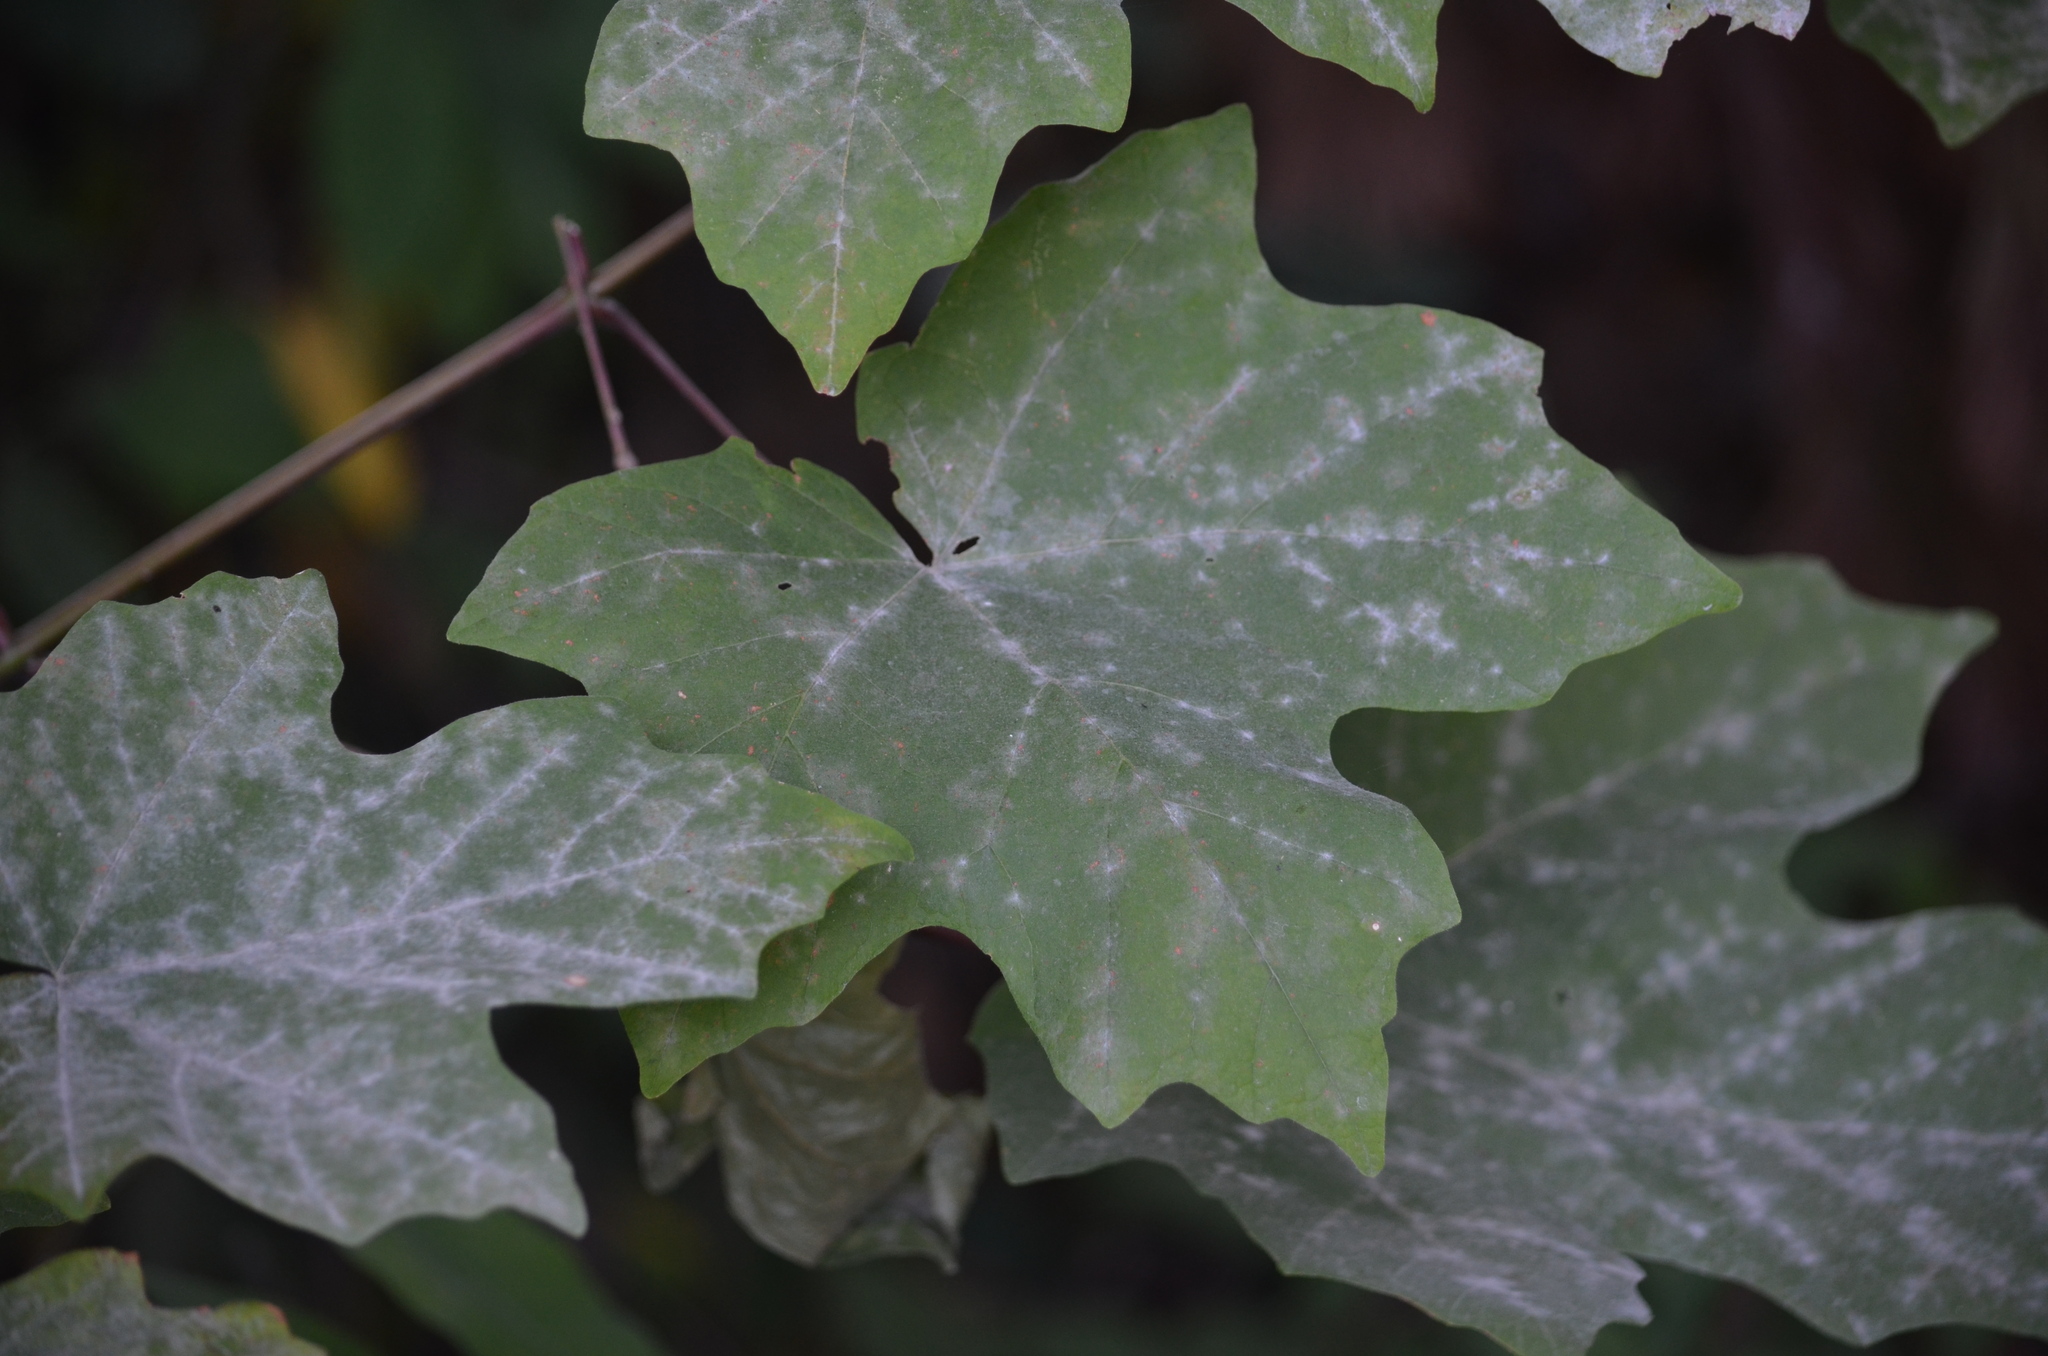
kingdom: Fungi
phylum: Ascomycota
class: Leotiomycetes
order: Helotiales
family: Erysiphaceae
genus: Sawadaea
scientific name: Sawadaea bicornis
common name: Maple mildew
